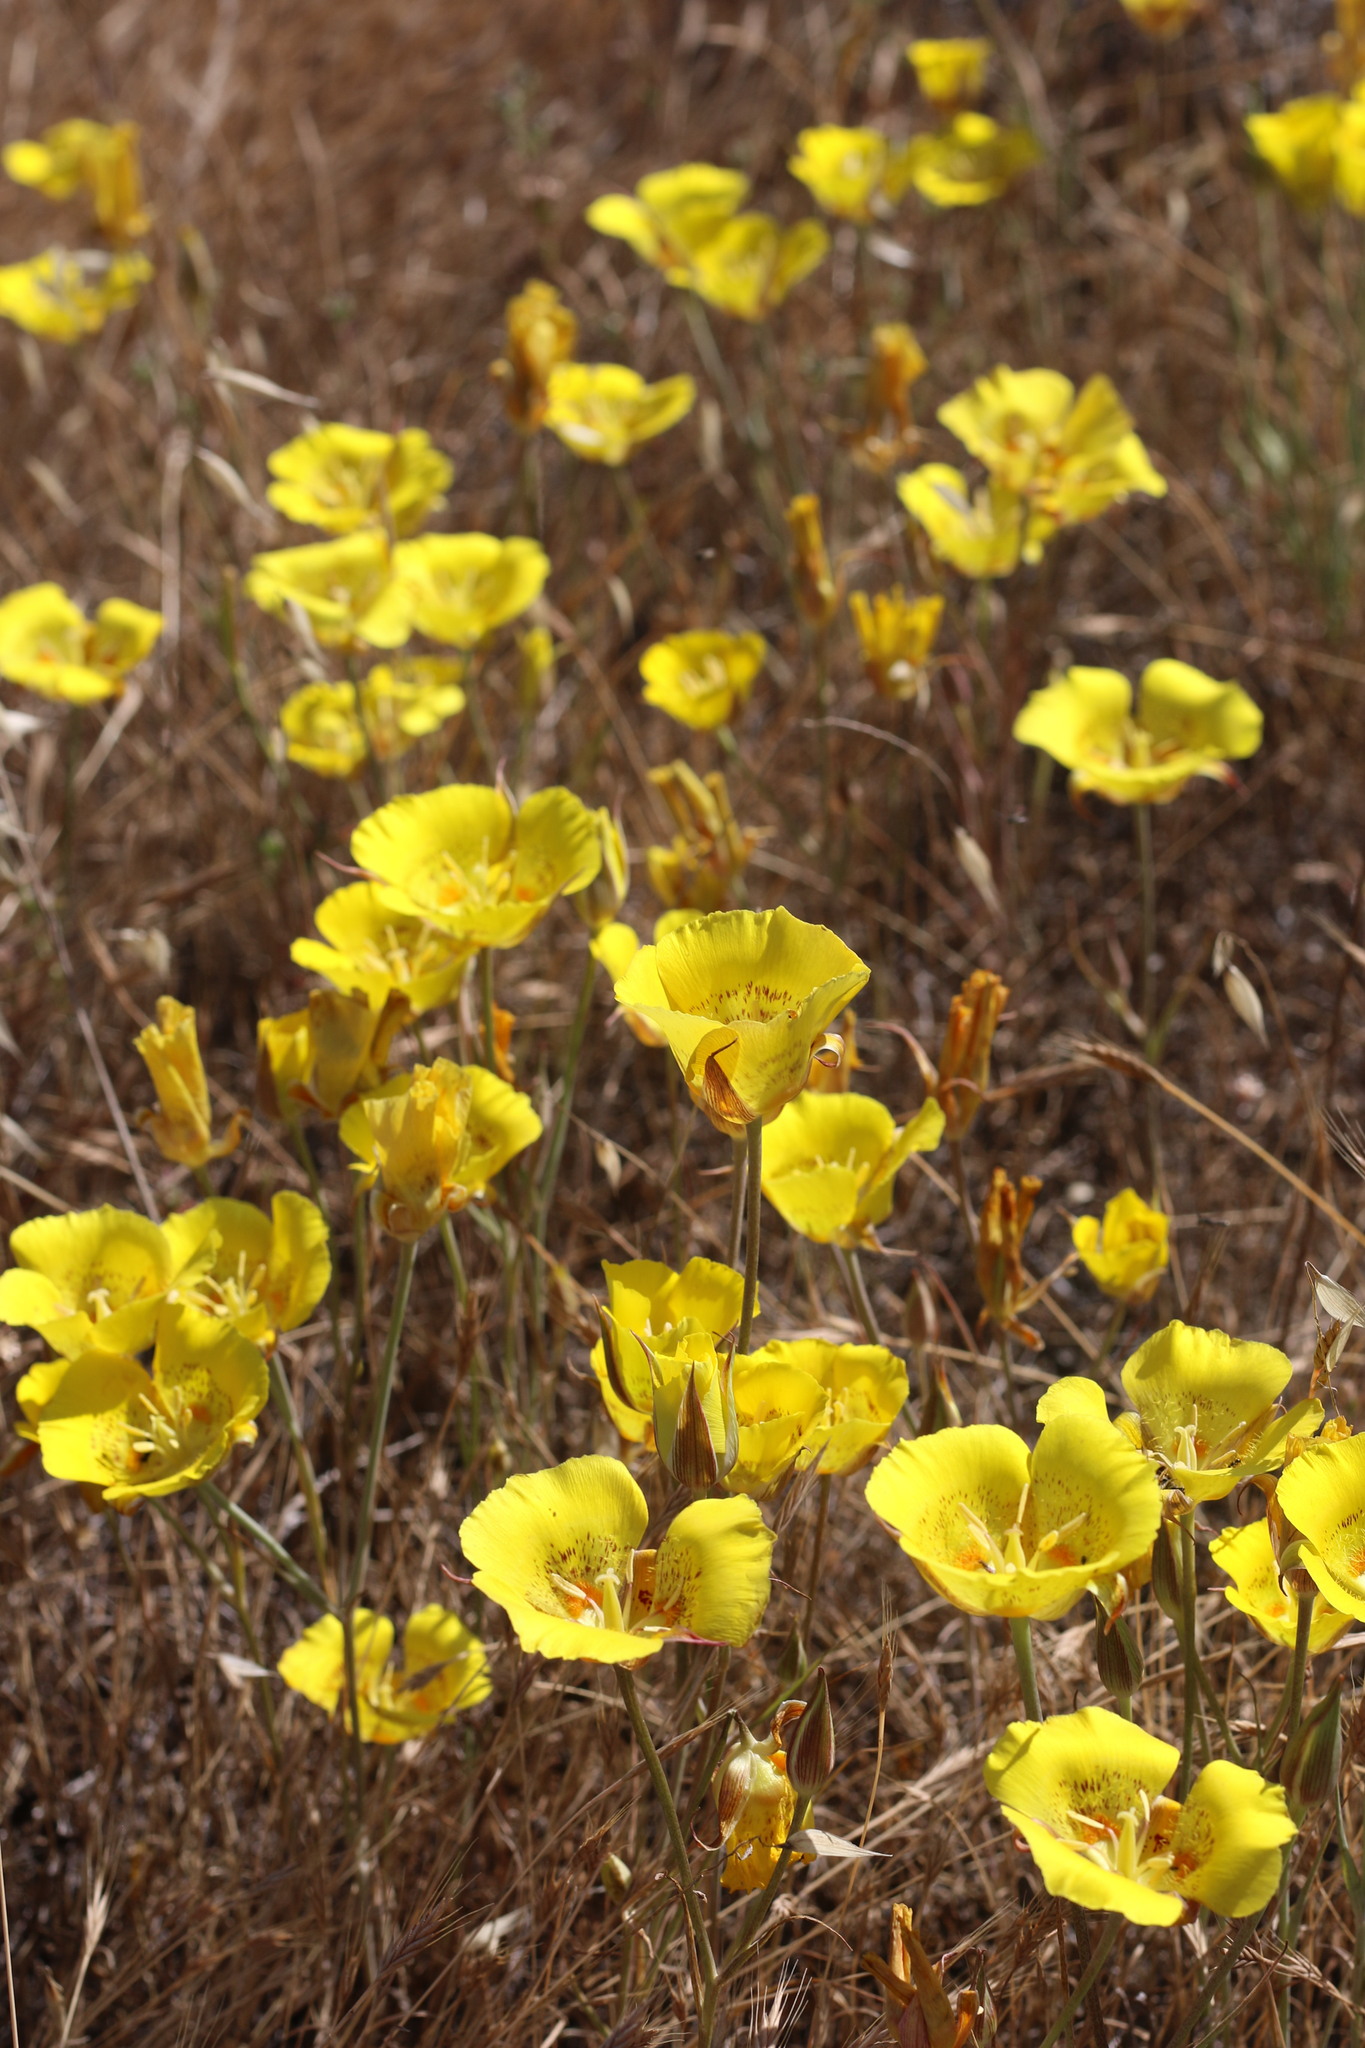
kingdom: Plantae
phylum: Tracheophyta
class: Liliopsida
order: Liliales
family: Liliaceae
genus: Calochortus
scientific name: Calochortus luteus
